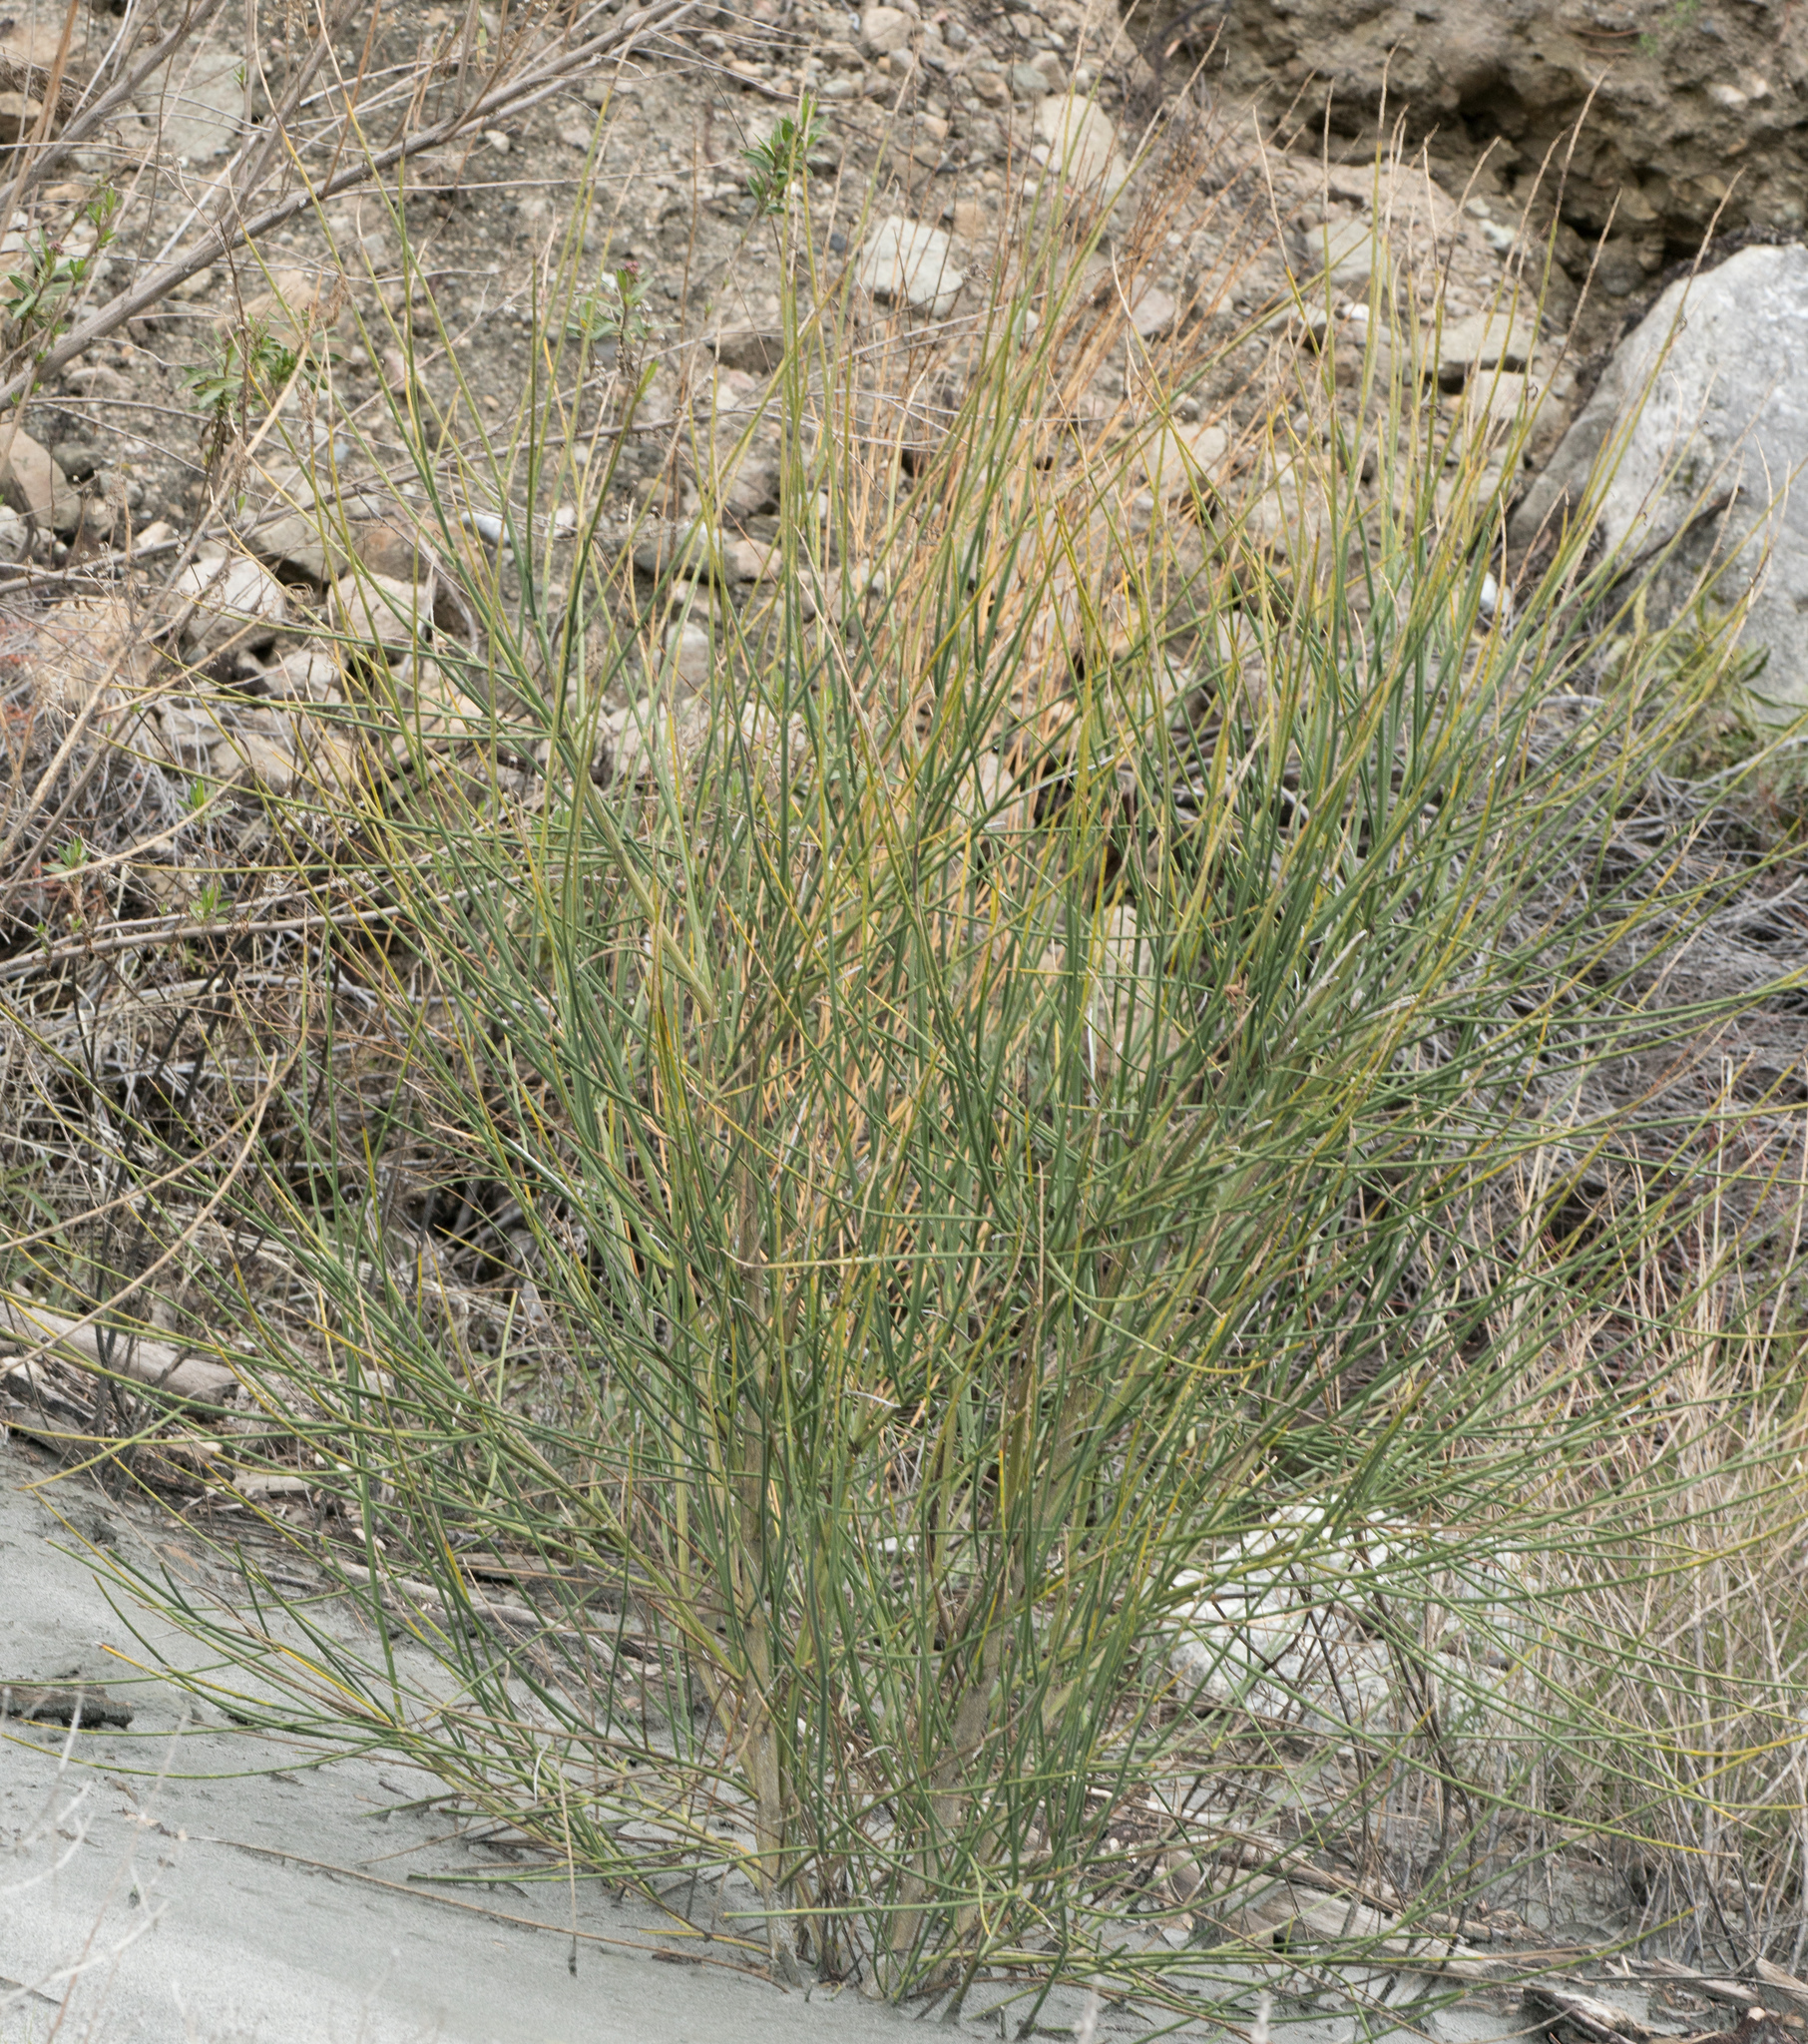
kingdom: Plantae
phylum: Tracheophyta
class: Magnoliopsida
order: Fabales
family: Fabaceae
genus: Spartium
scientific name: Spartium junceum
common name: Spanish broom
